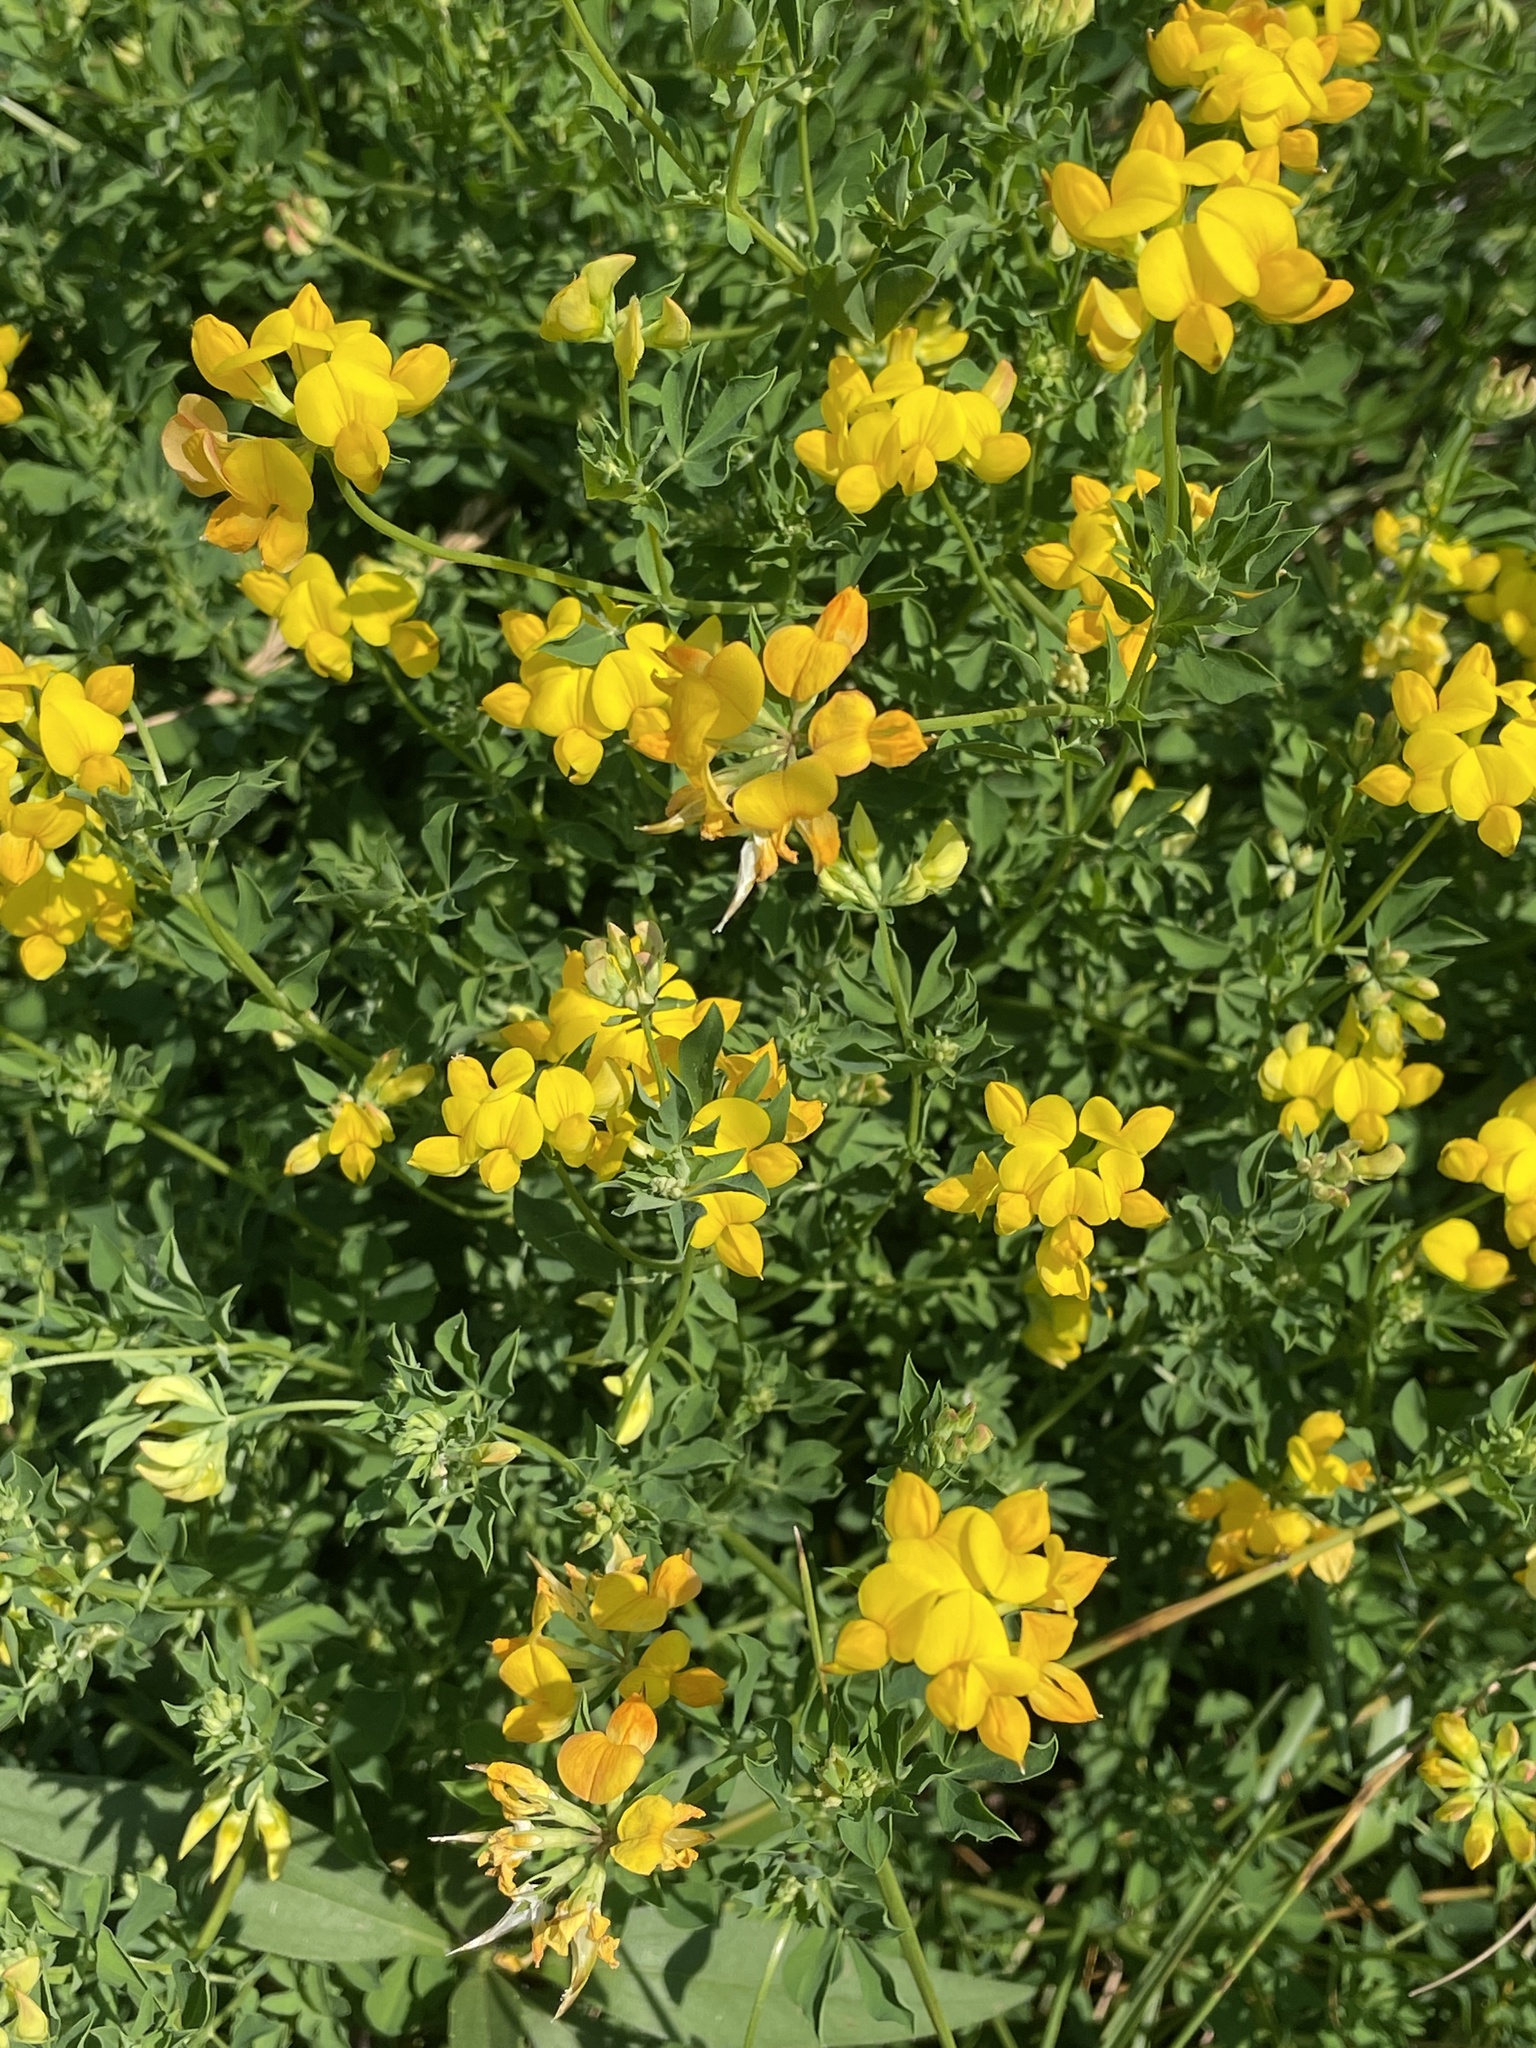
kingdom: Plantae
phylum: Tracheophyta
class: Magnoliopsida
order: Fabales
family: Fabaceae
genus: Lotus
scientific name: Lotus corniculatus
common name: Common bird's-foot-trefoil
